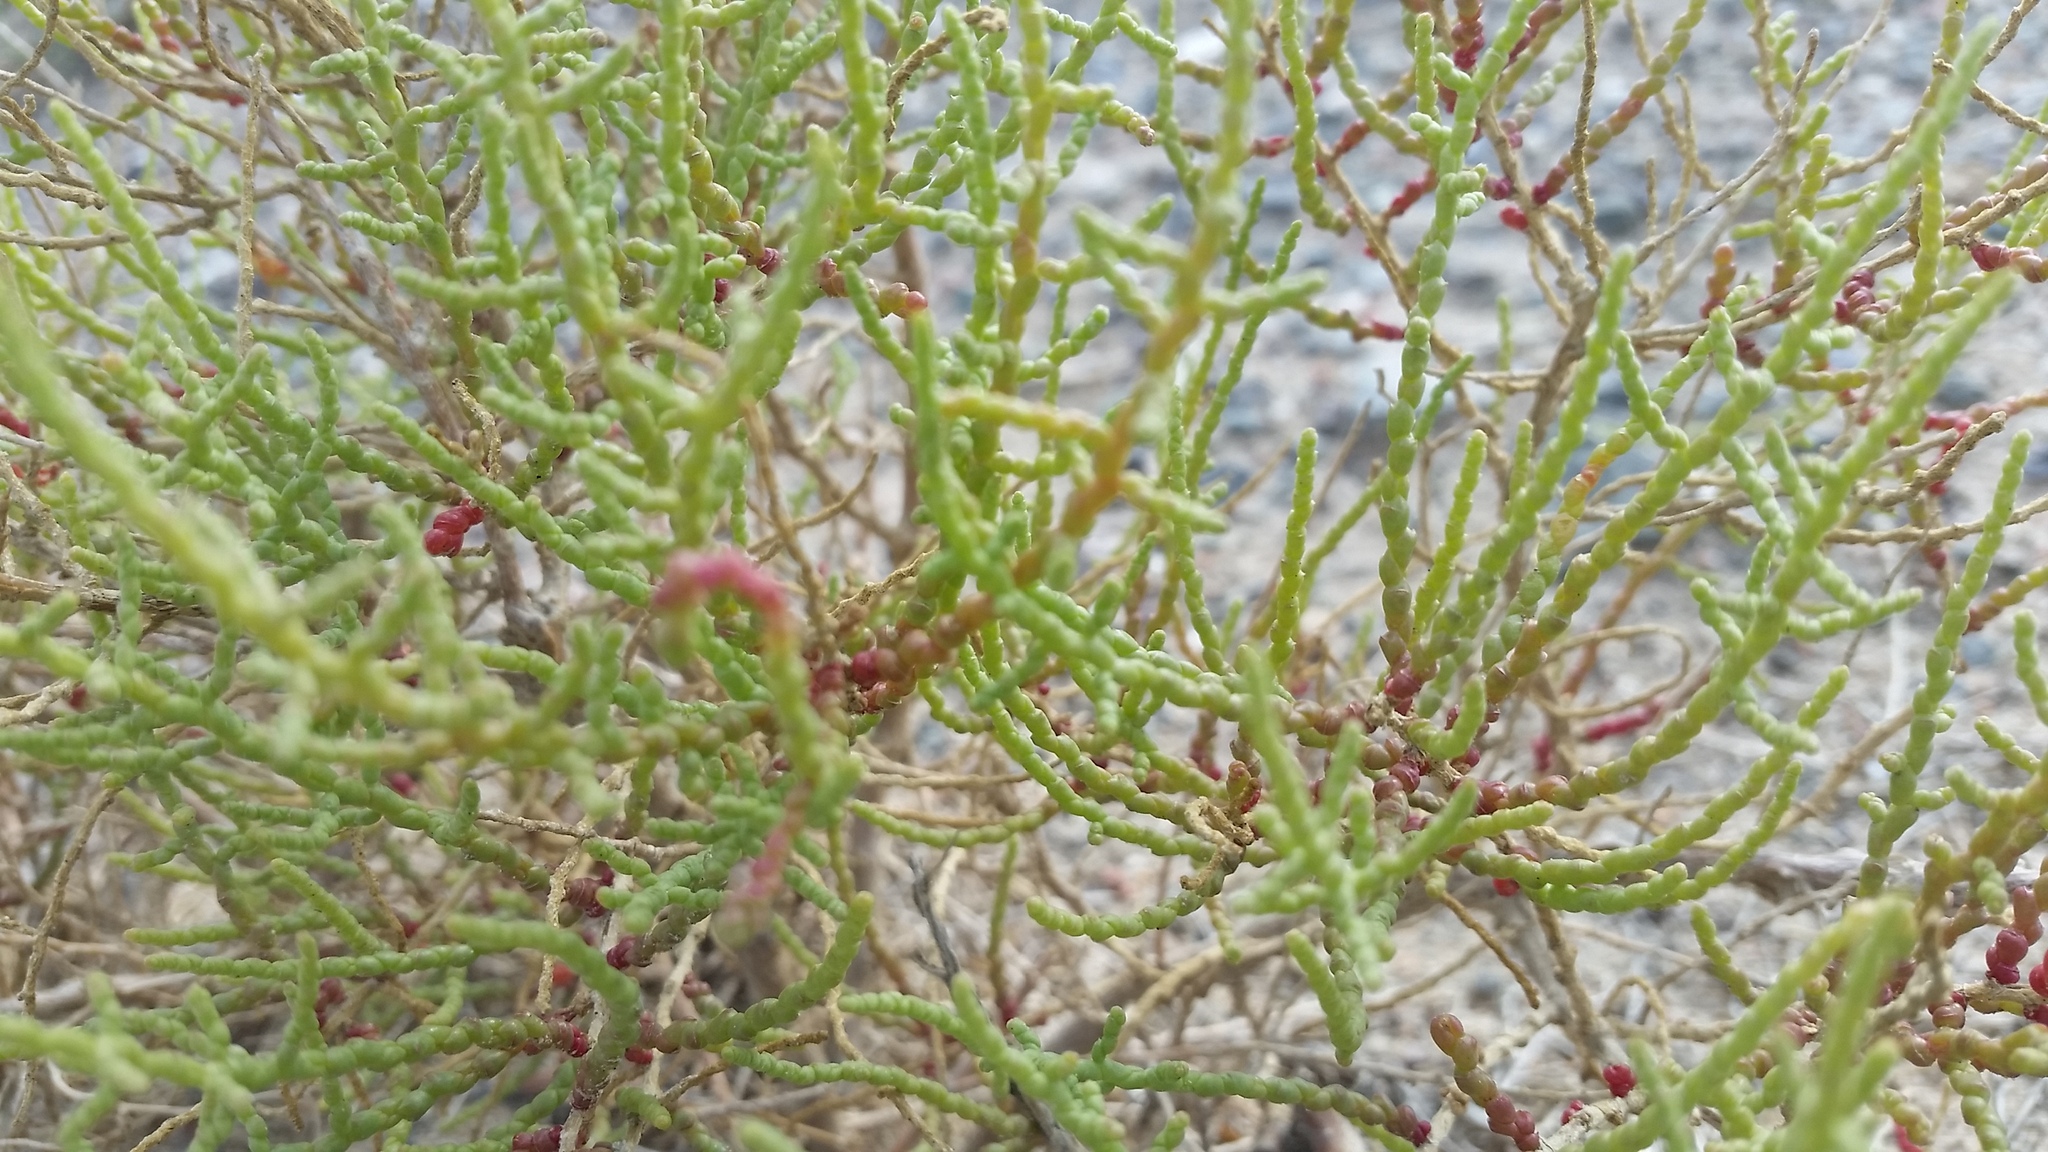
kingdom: Plantae
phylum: Tracheophyta
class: Magnoliopsida
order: Caryophyllales
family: Amaranthaceae
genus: Haloxylon
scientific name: Haloxylon ammodendron
